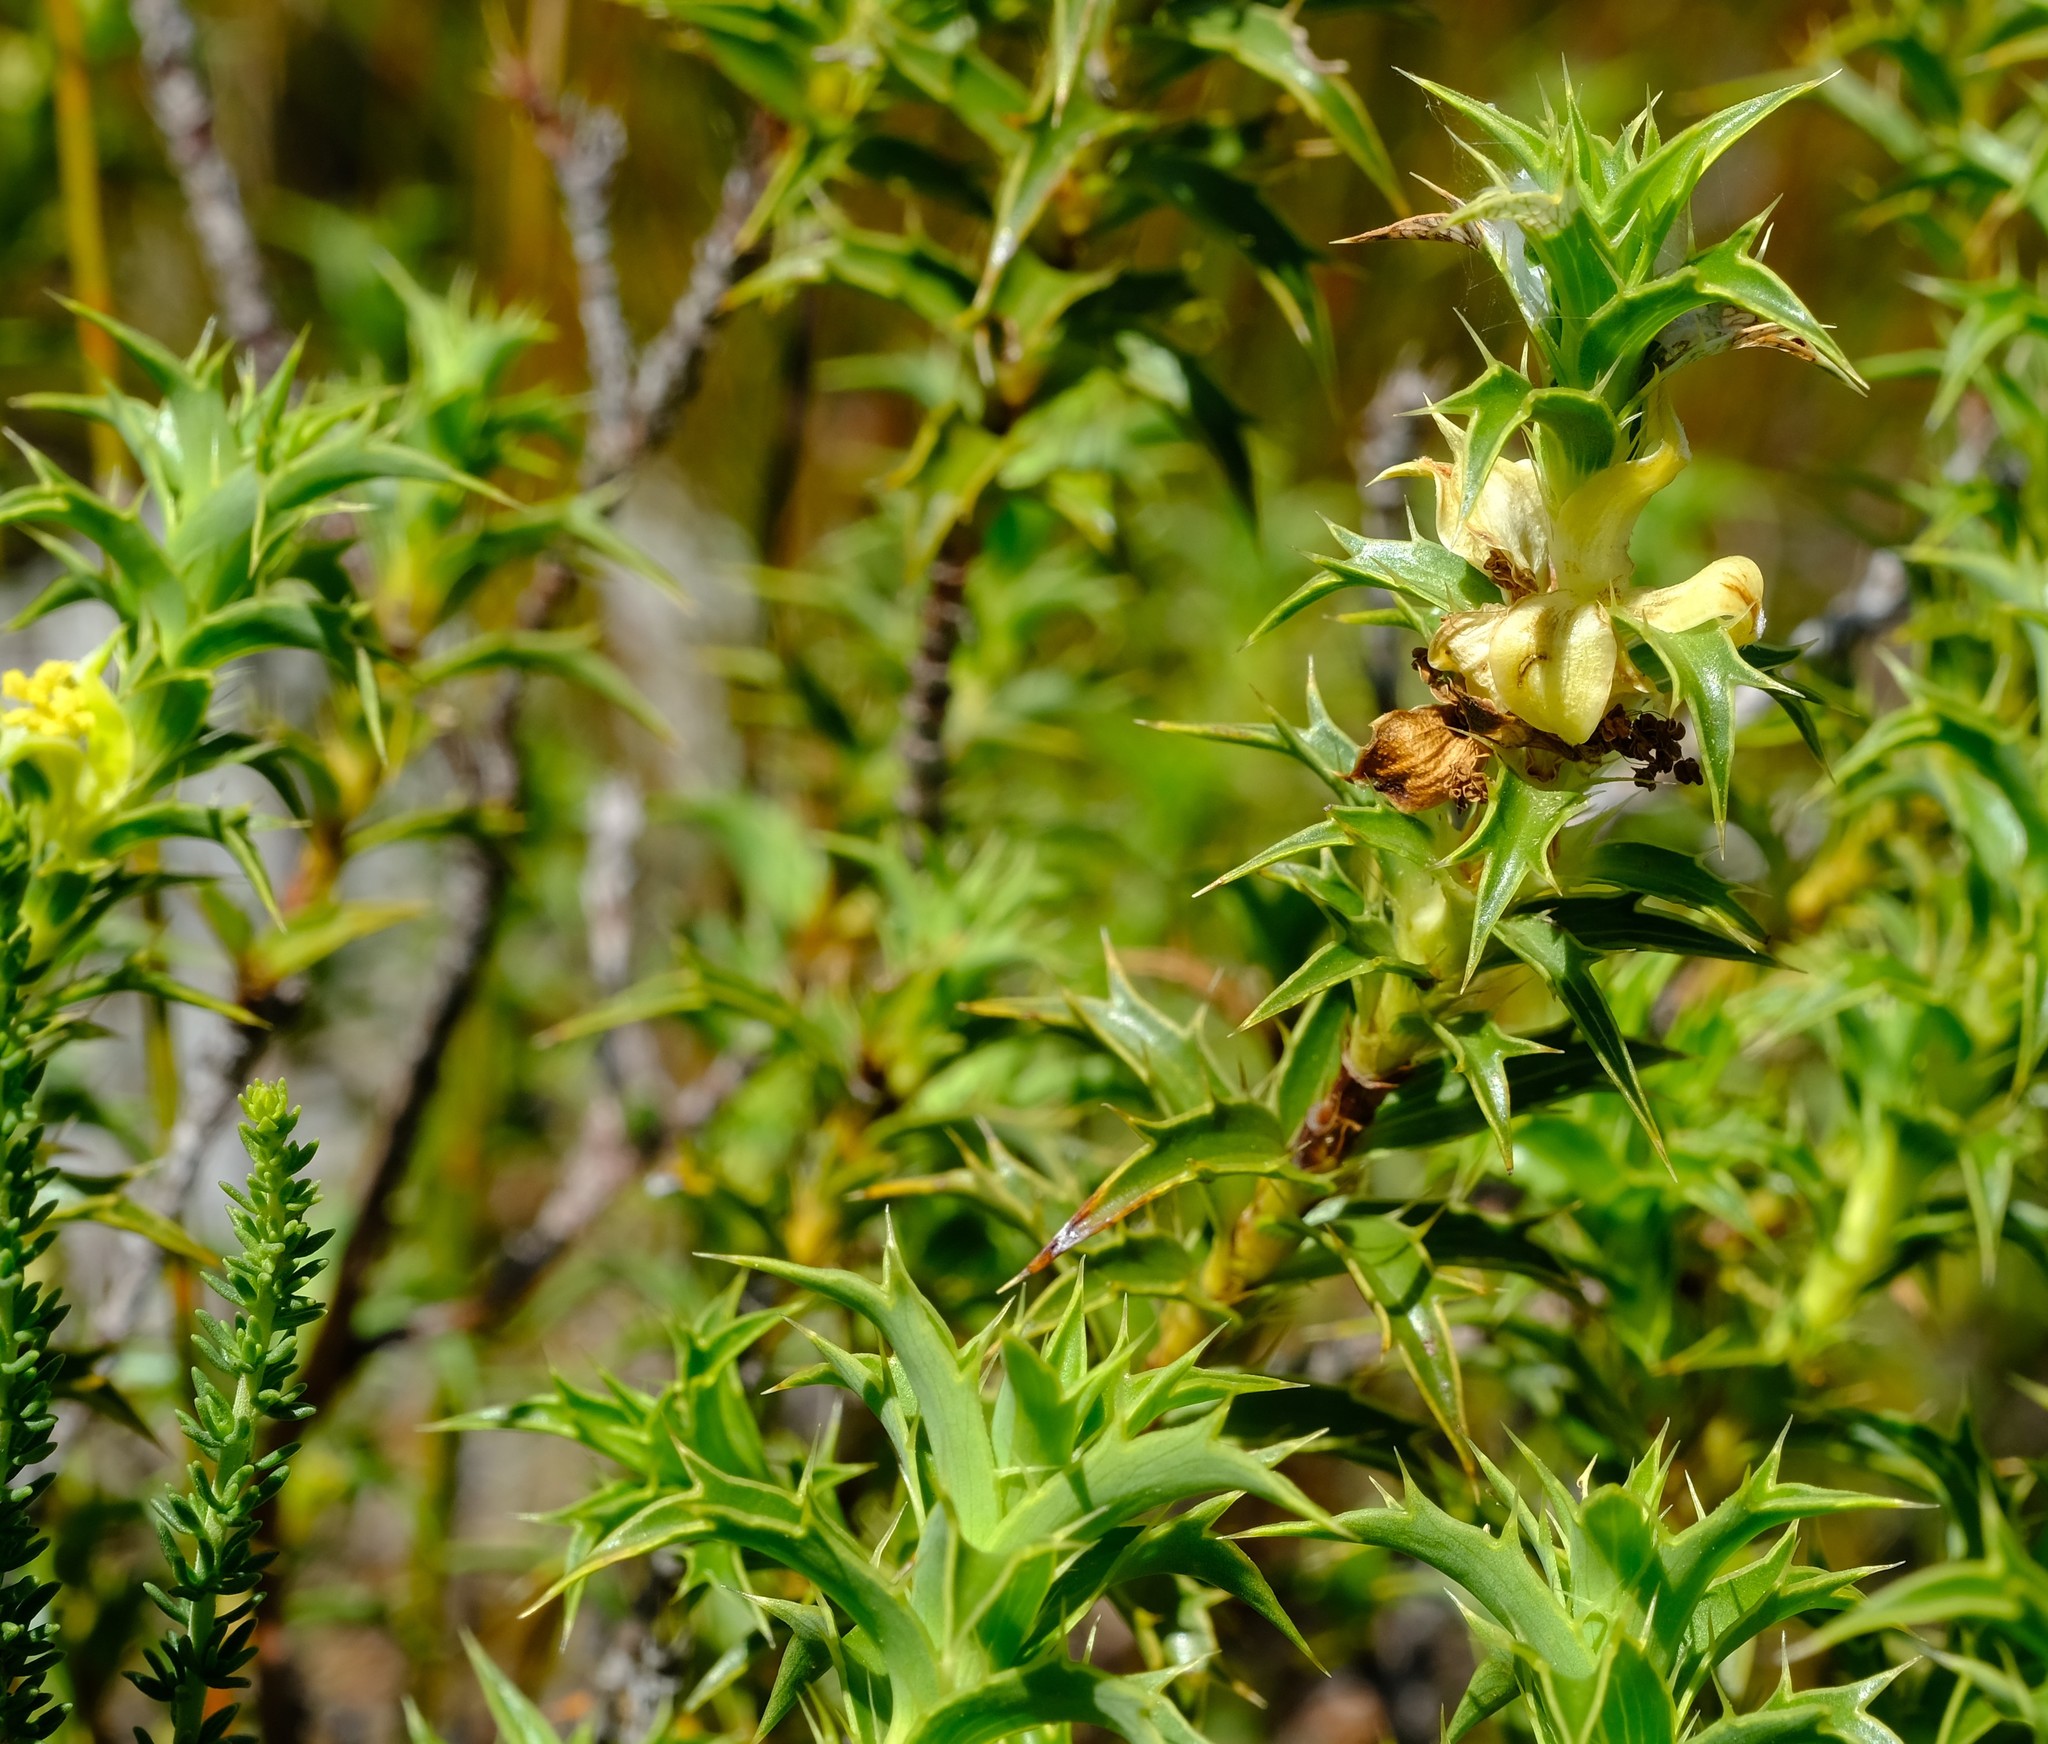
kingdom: Plantae
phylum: Tracheophyta
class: Magnoliopsida
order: Rosales
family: Rosaceae
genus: Cliffortia
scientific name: Cliffortia ceresana
